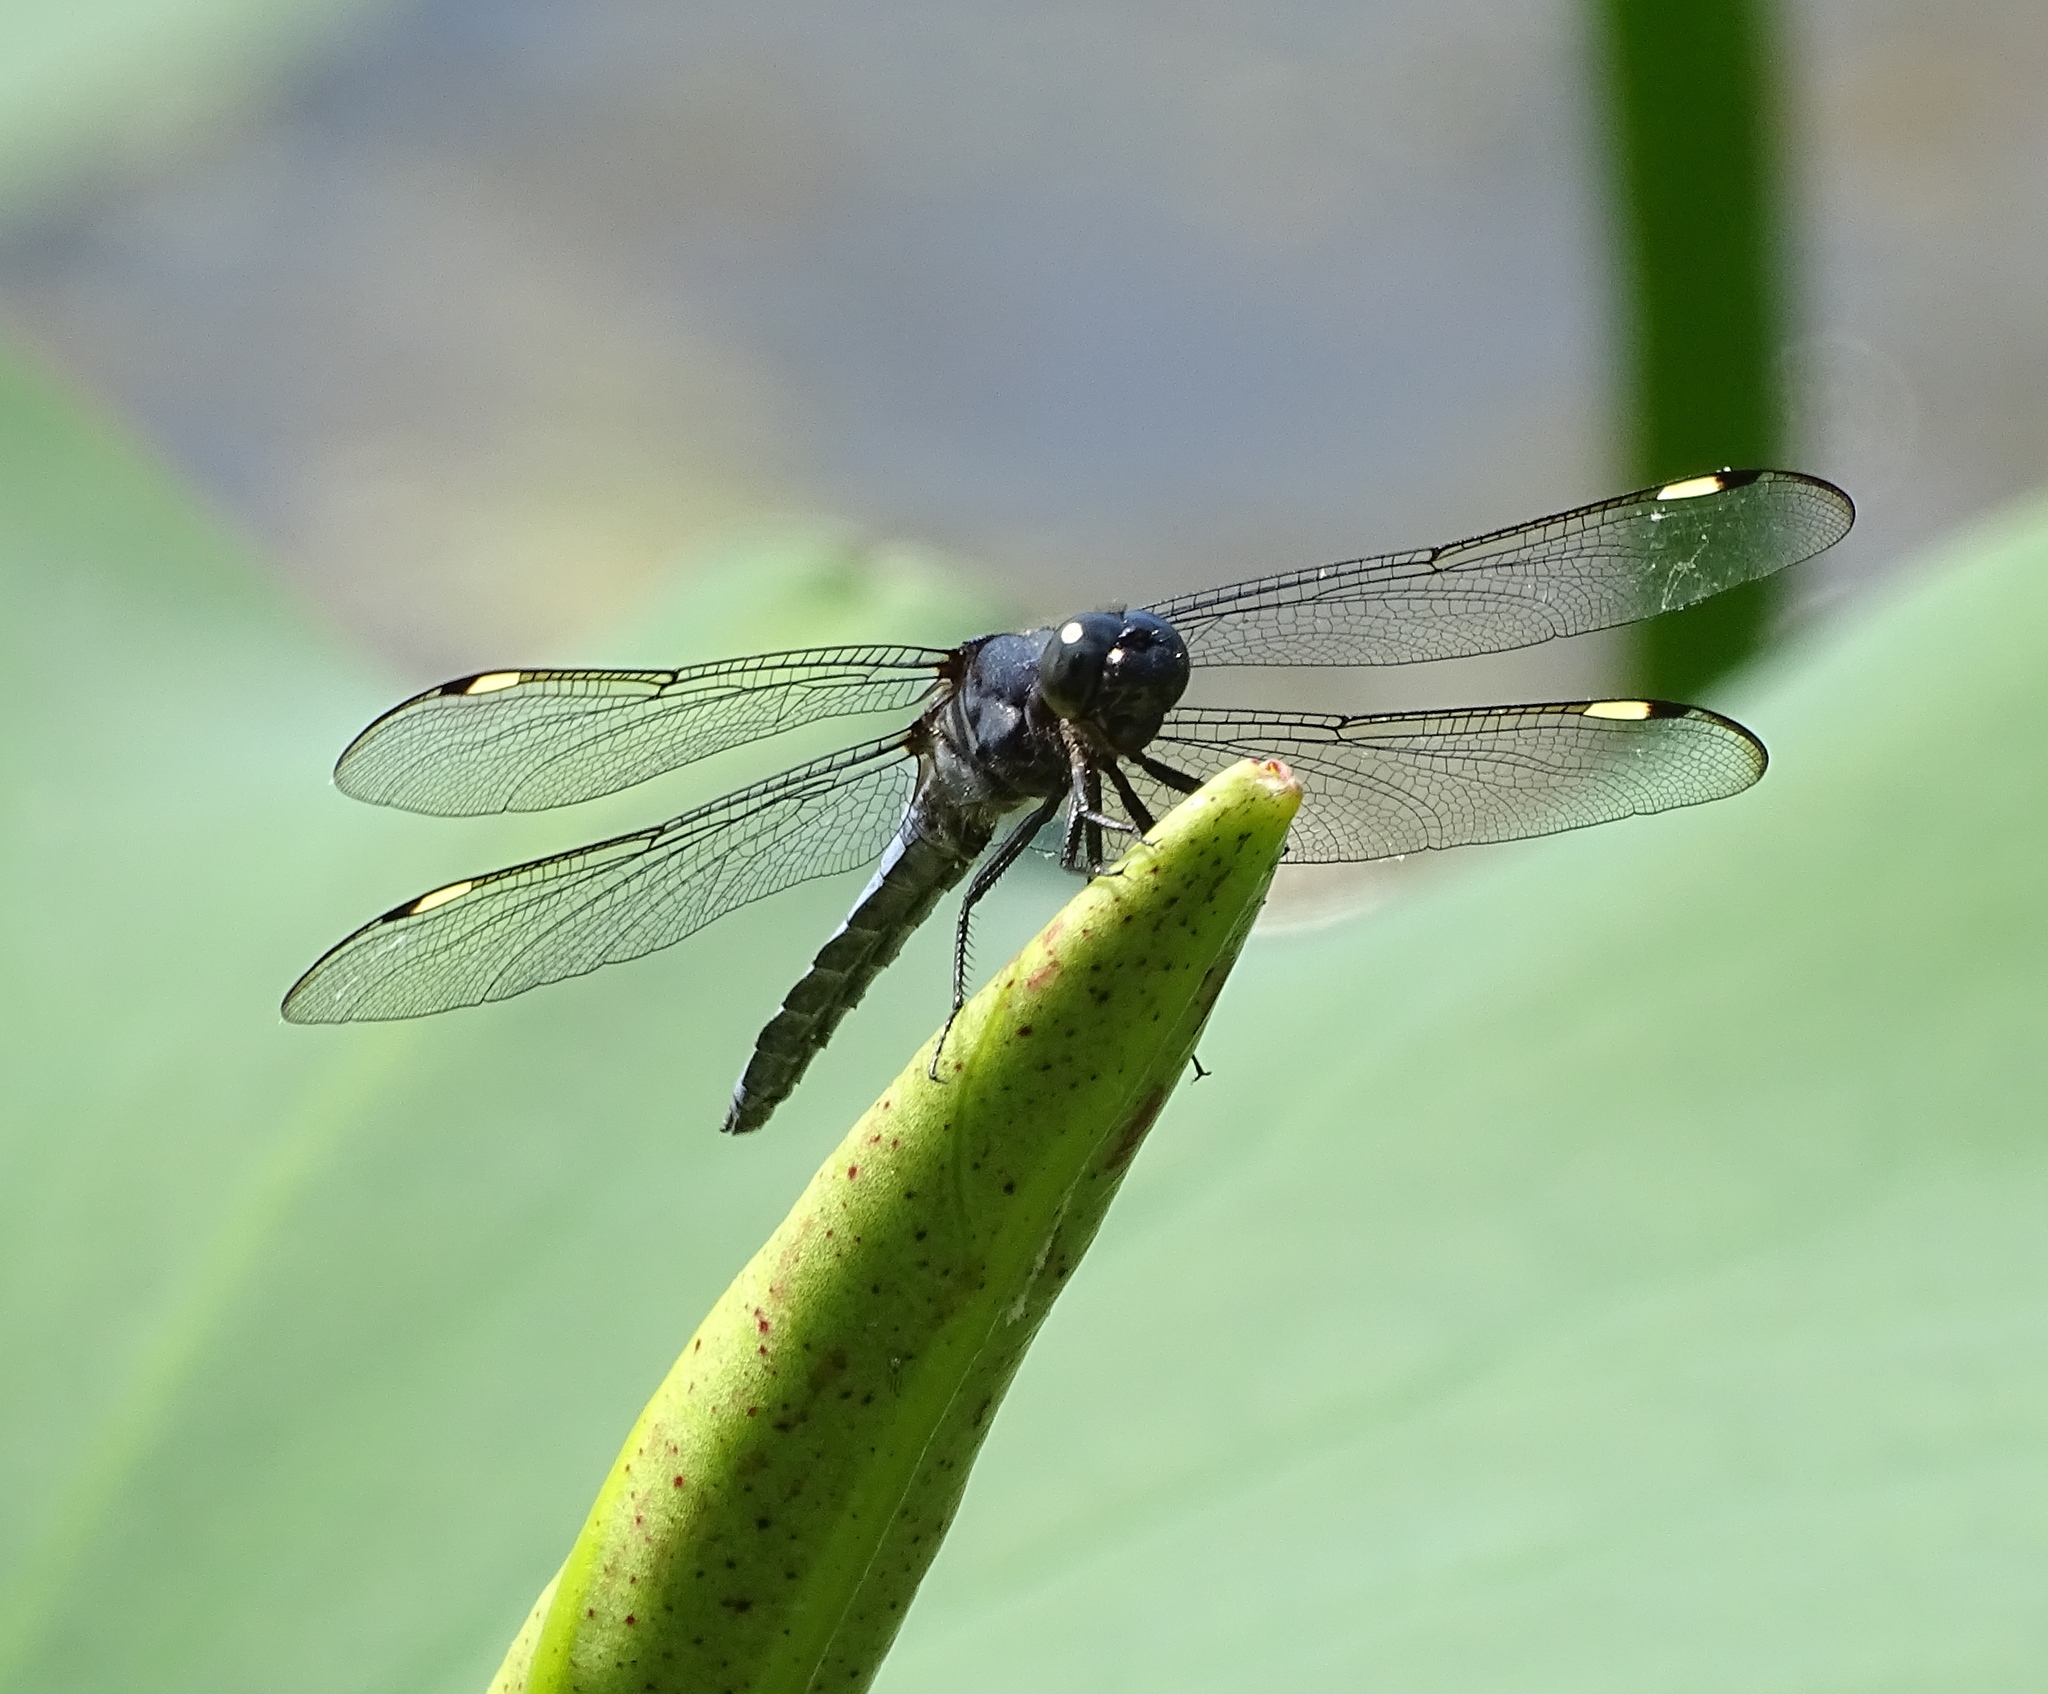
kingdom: Animalia
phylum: Arthropoda
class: Insecta
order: Odonata
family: Libellulidae
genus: Libellula
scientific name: Libellula cyanea
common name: Spangled skimmer
